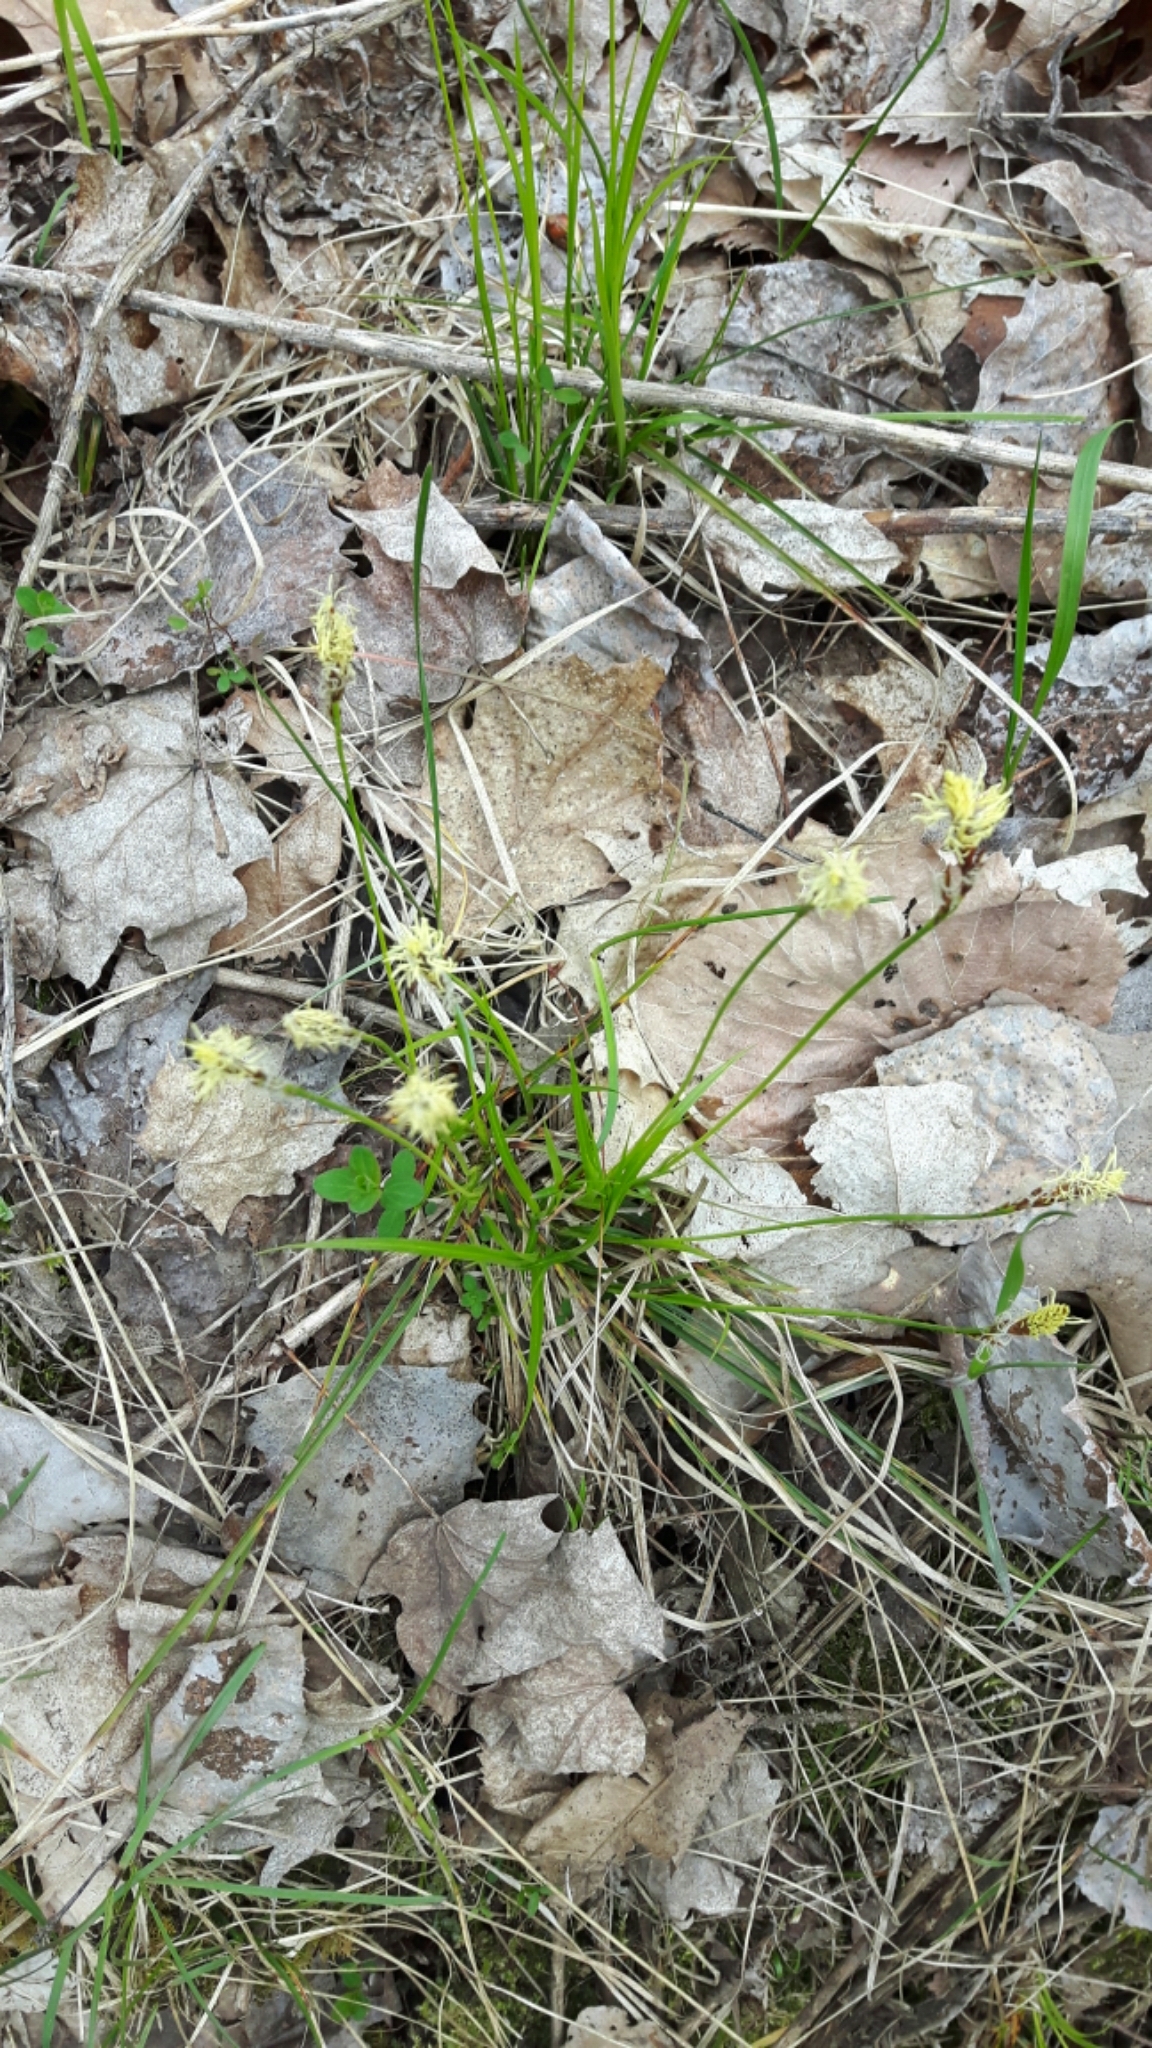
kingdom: Plantae
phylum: Tracheophyta
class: Liliopsida
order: Poales
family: Cyperaceae
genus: Carex
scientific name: Carex pensylvanica
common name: Common oak sedge
